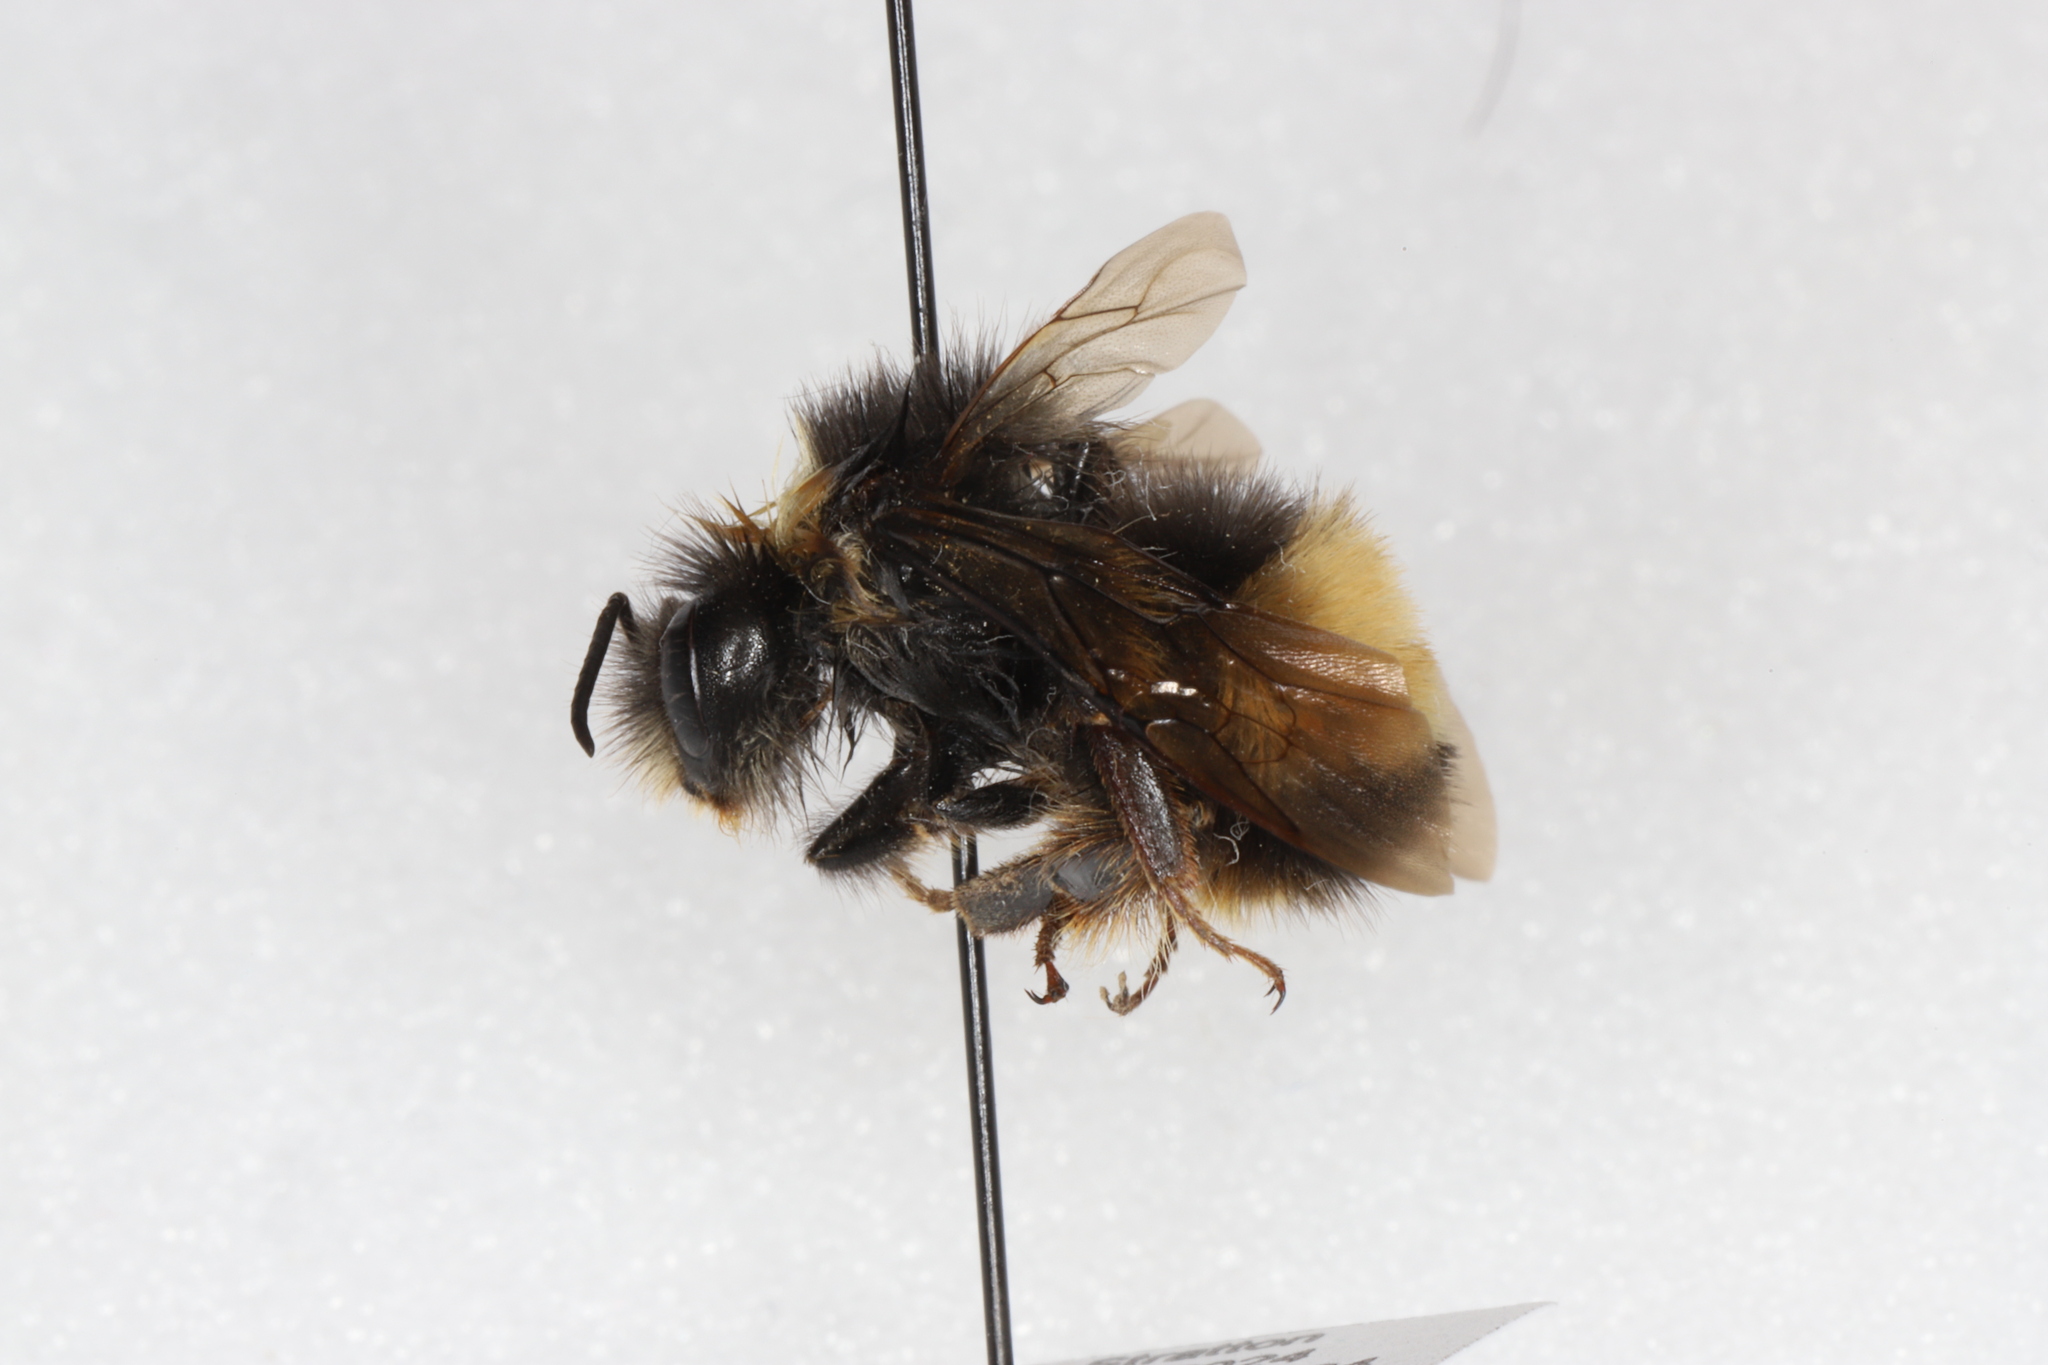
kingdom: Animalia
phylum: Arthropoda
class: Insecta
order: Hymenoptera
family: Apidae
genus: Bombus
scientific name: Bombus terricola
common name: Yellow-banded bumble bee
